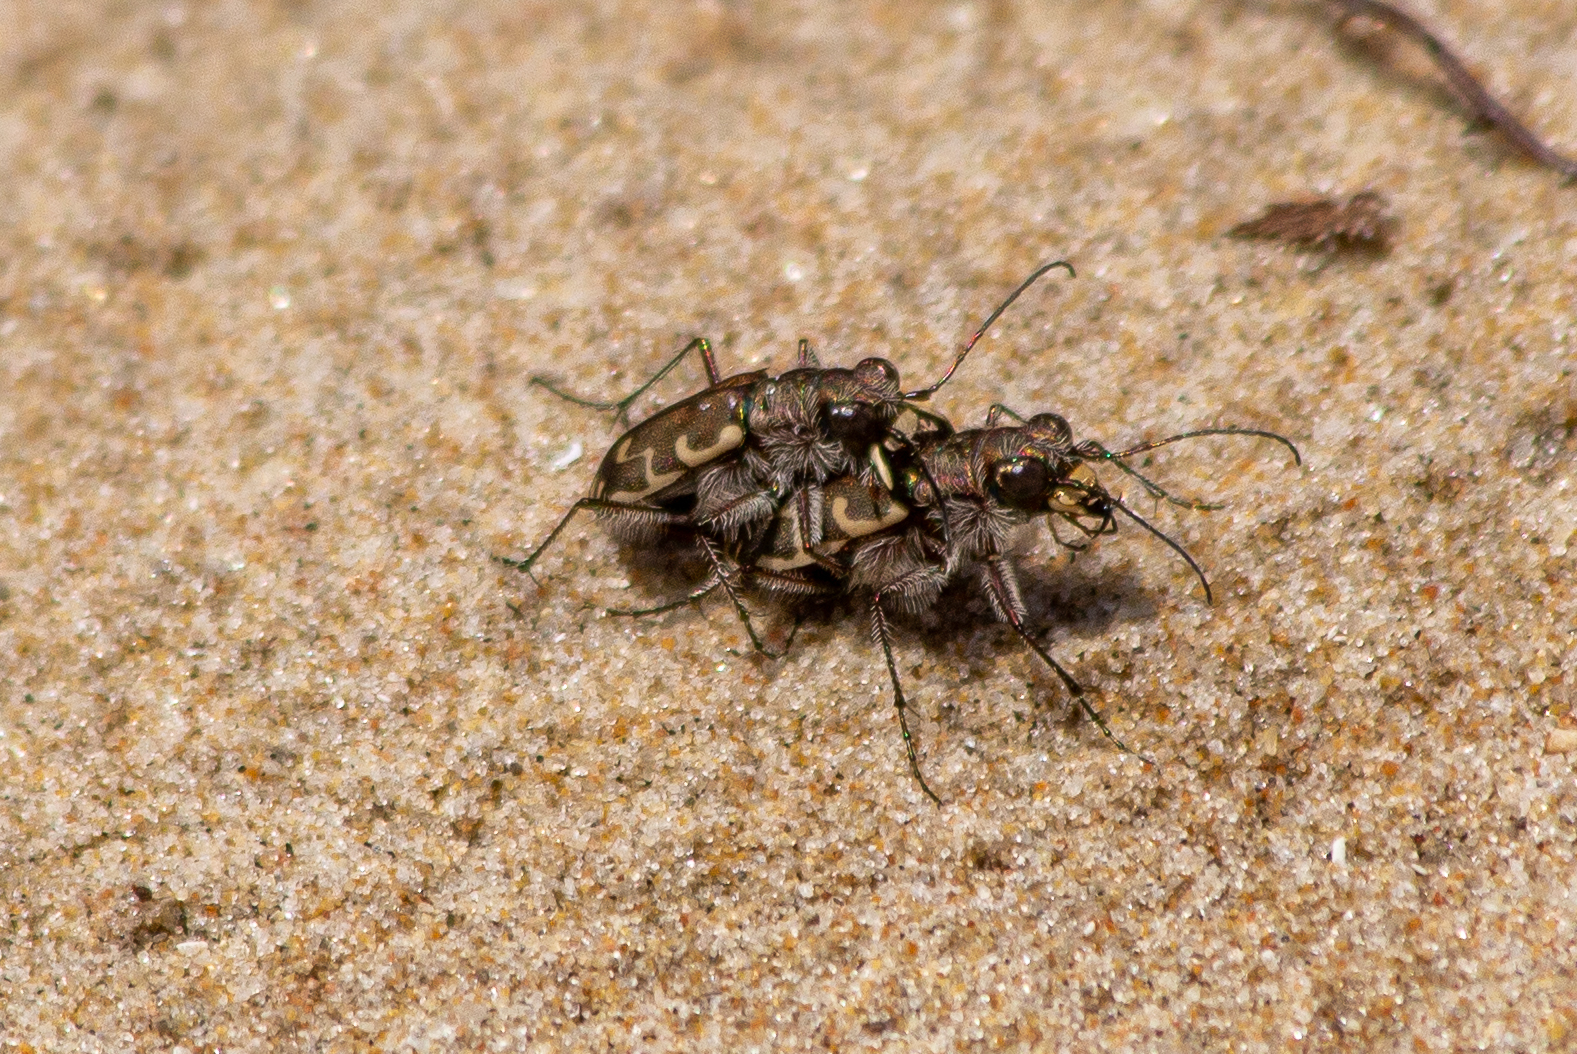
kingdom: Animalia
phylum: Arthropoda
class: Insecta
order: Coleoptera
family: Carabidae
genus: Cicindela
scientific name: Cicindela repanda
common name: Bronzed tiger beetle
